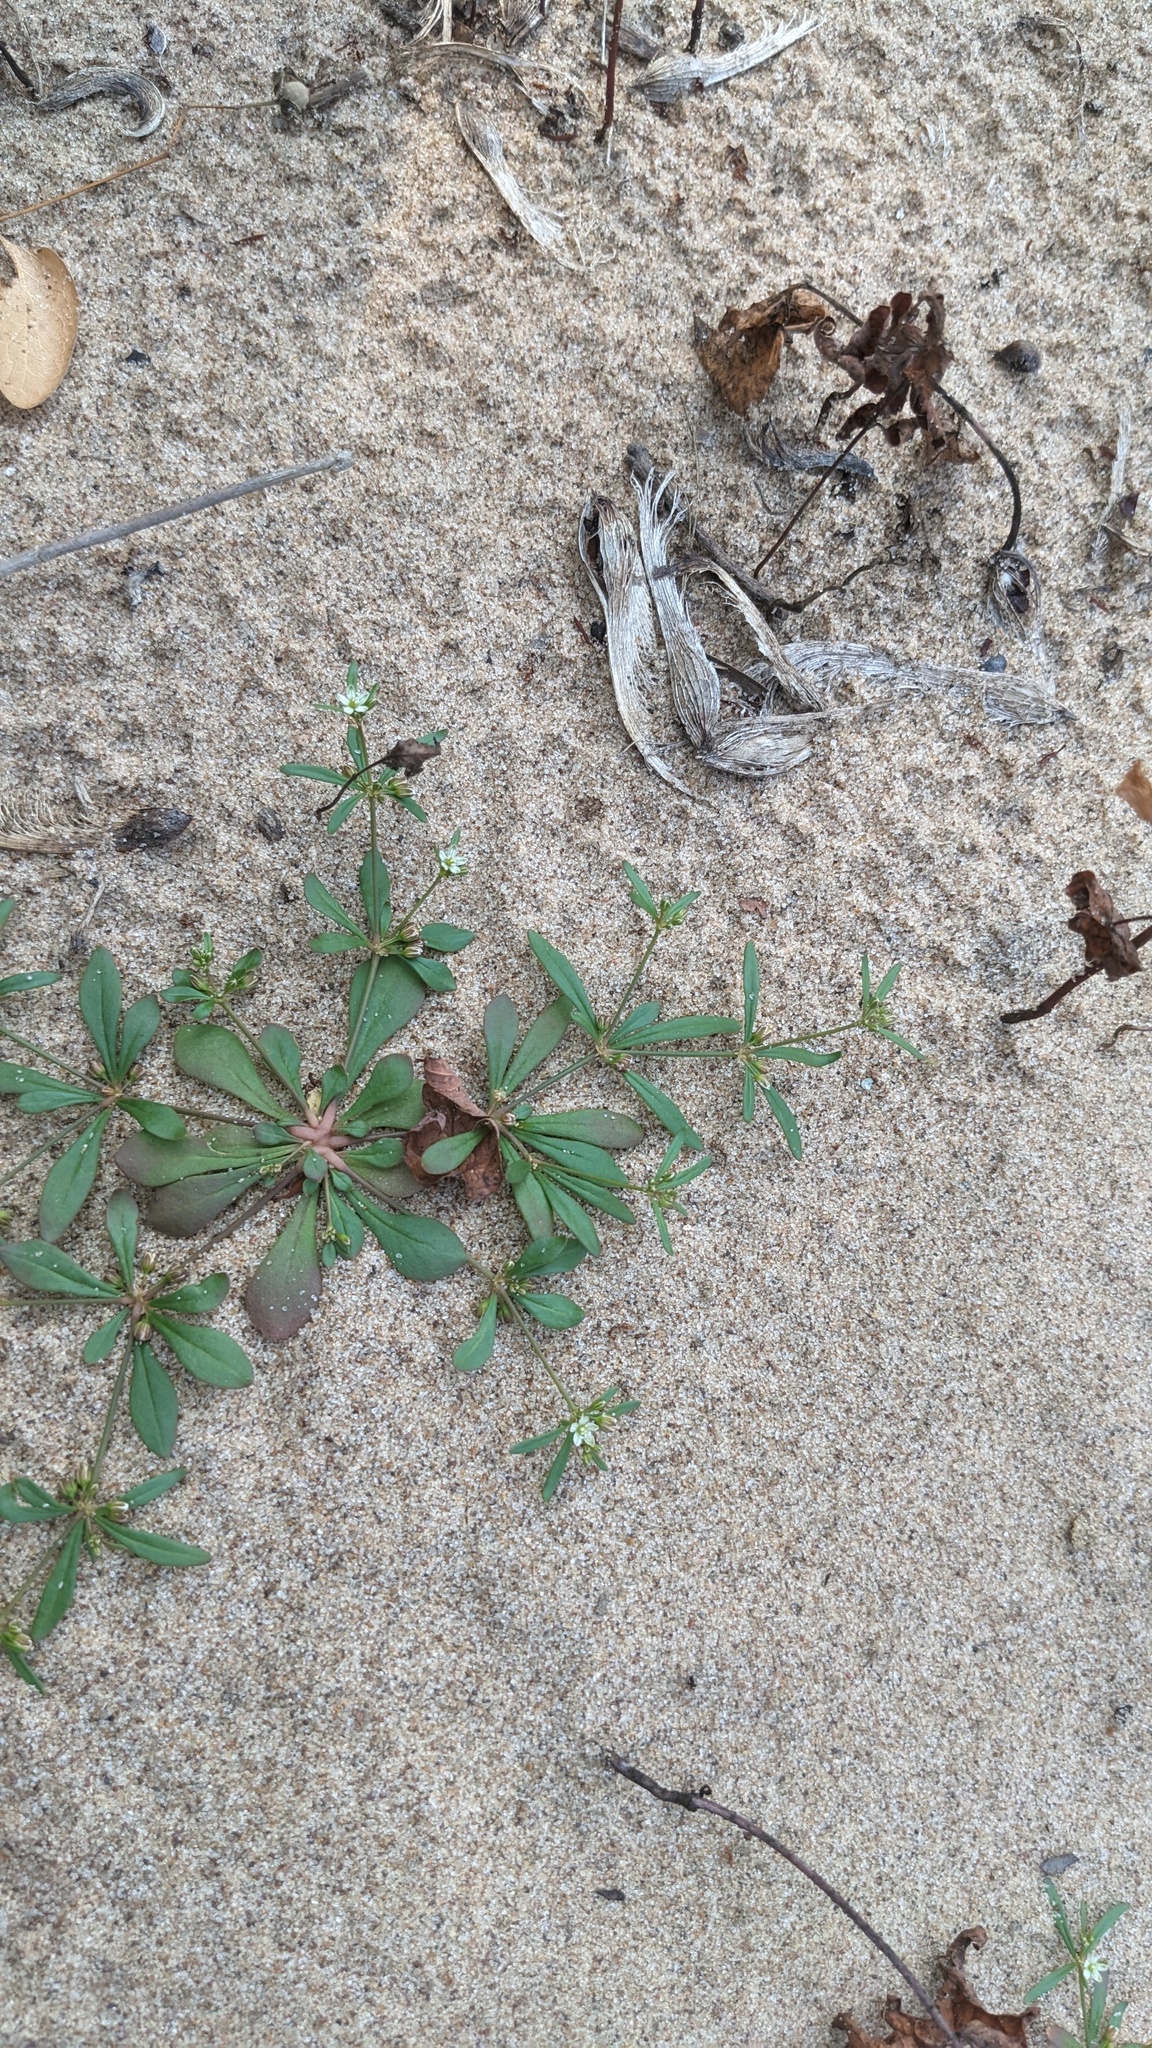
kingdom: Plantae
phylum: Tracheophyta
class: Magnoliopsida
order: Caryophyllales
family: Molluginaceae
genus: Mollugo
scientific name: Mollugo verticillata
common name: Green carpetweed
